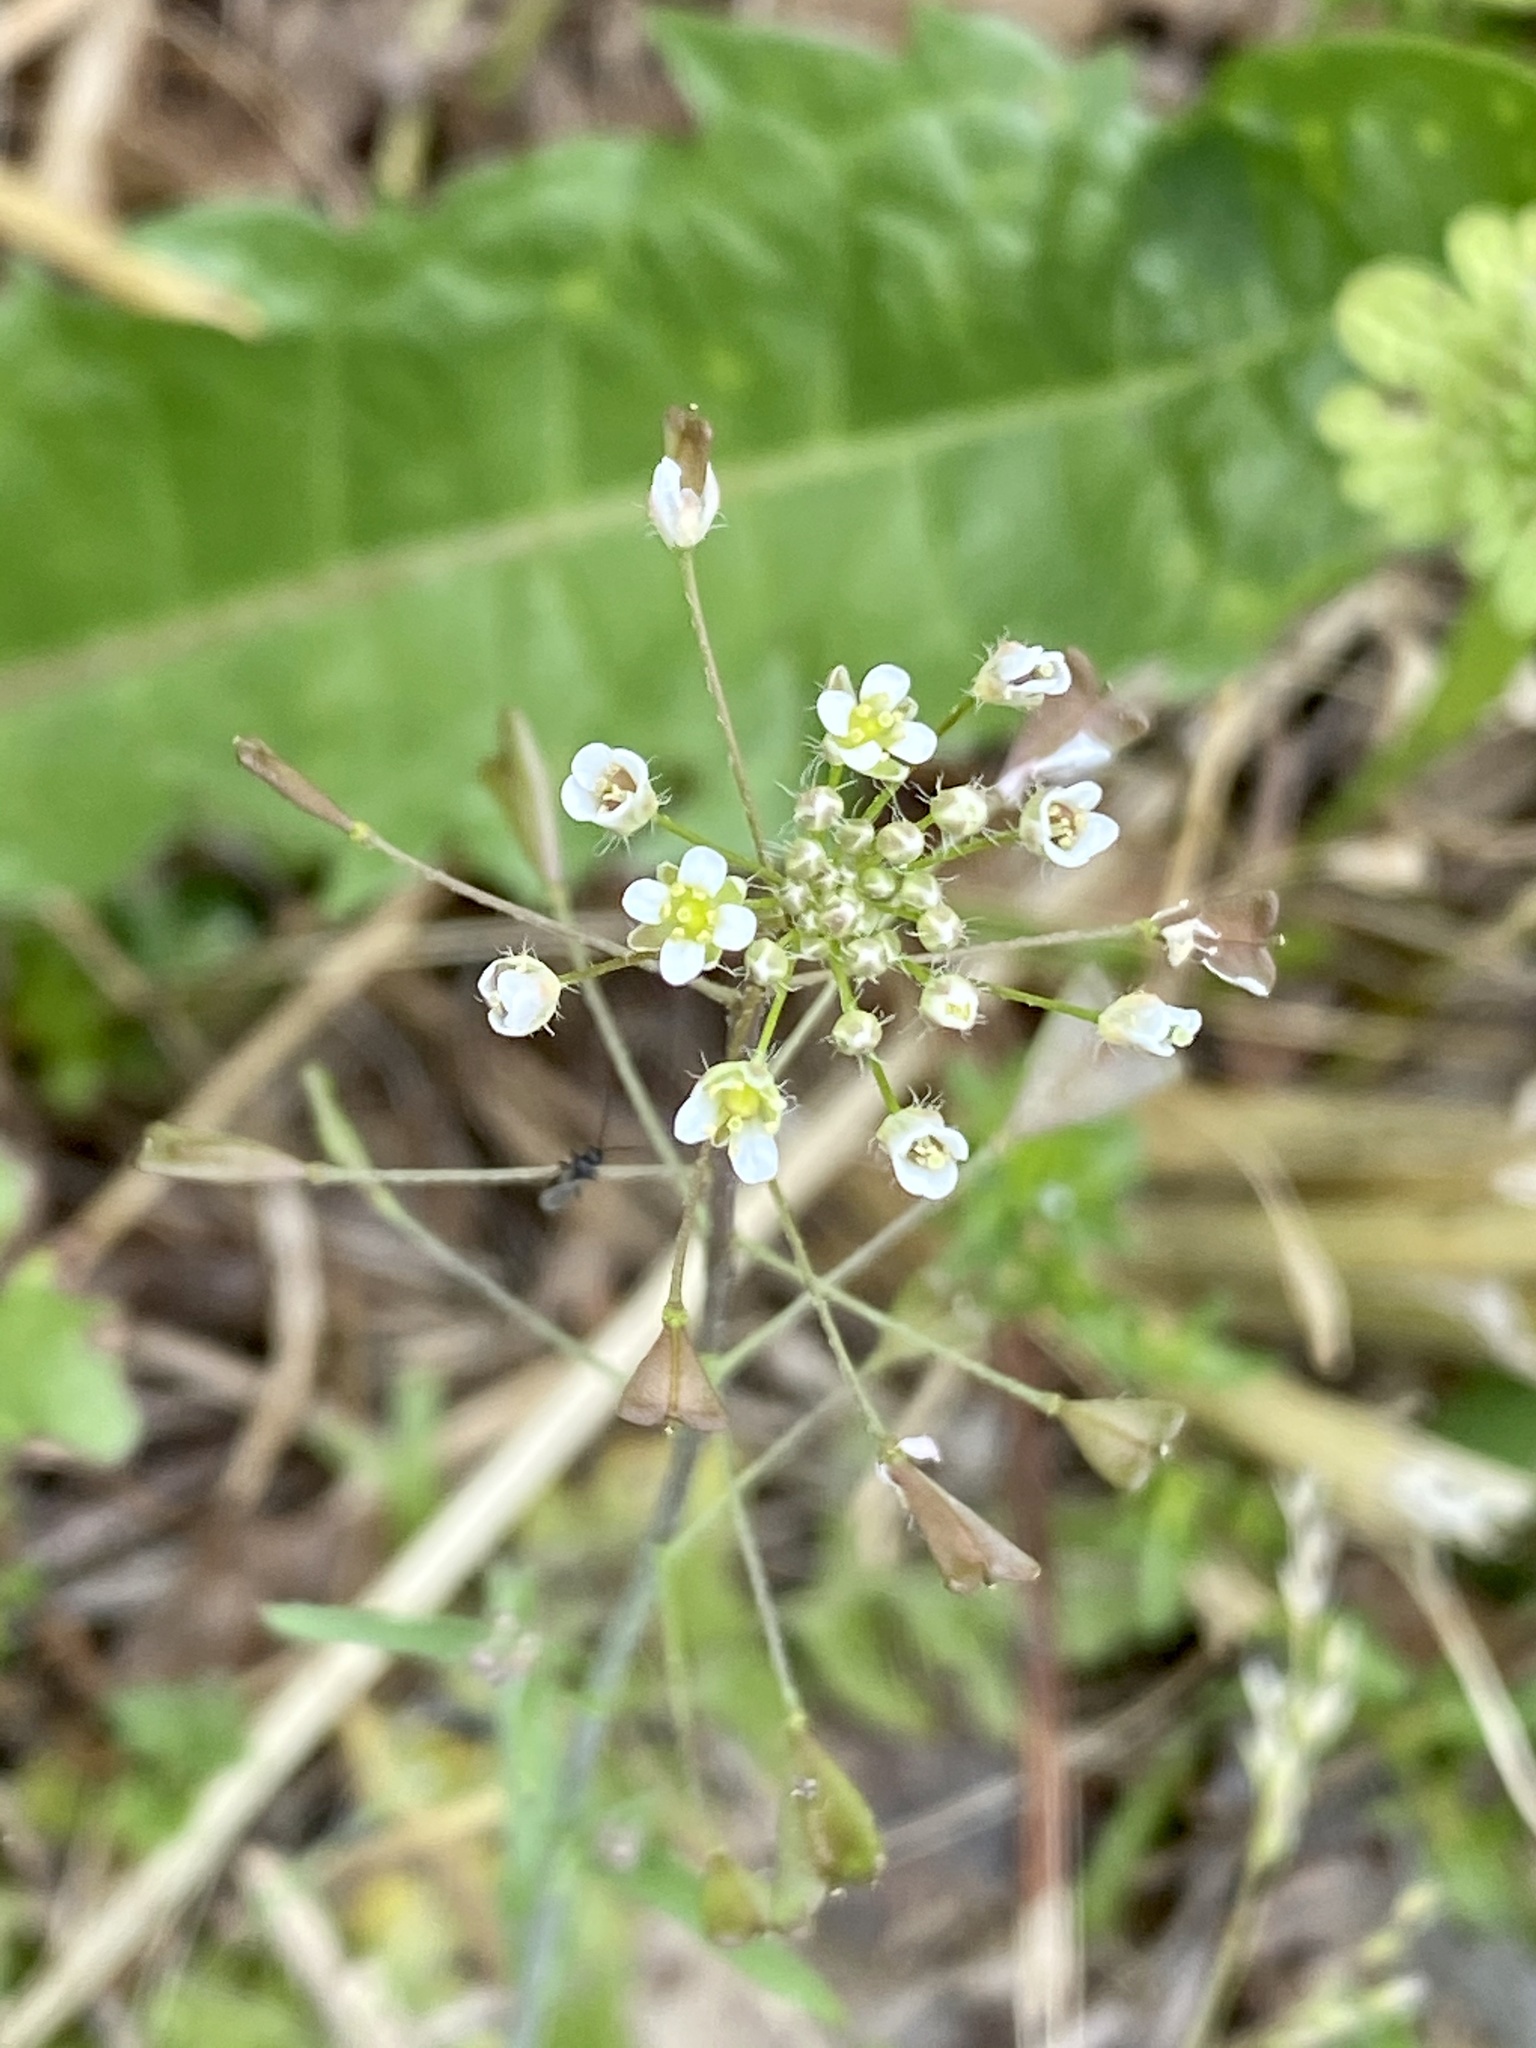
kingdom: Plantae
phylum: Tracheophyta
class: Magnoliopsida
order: Brassicales
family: Brassicaceae
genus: Capsella
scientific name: Capsella bursa-pastoris
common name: Shepherd's purse
